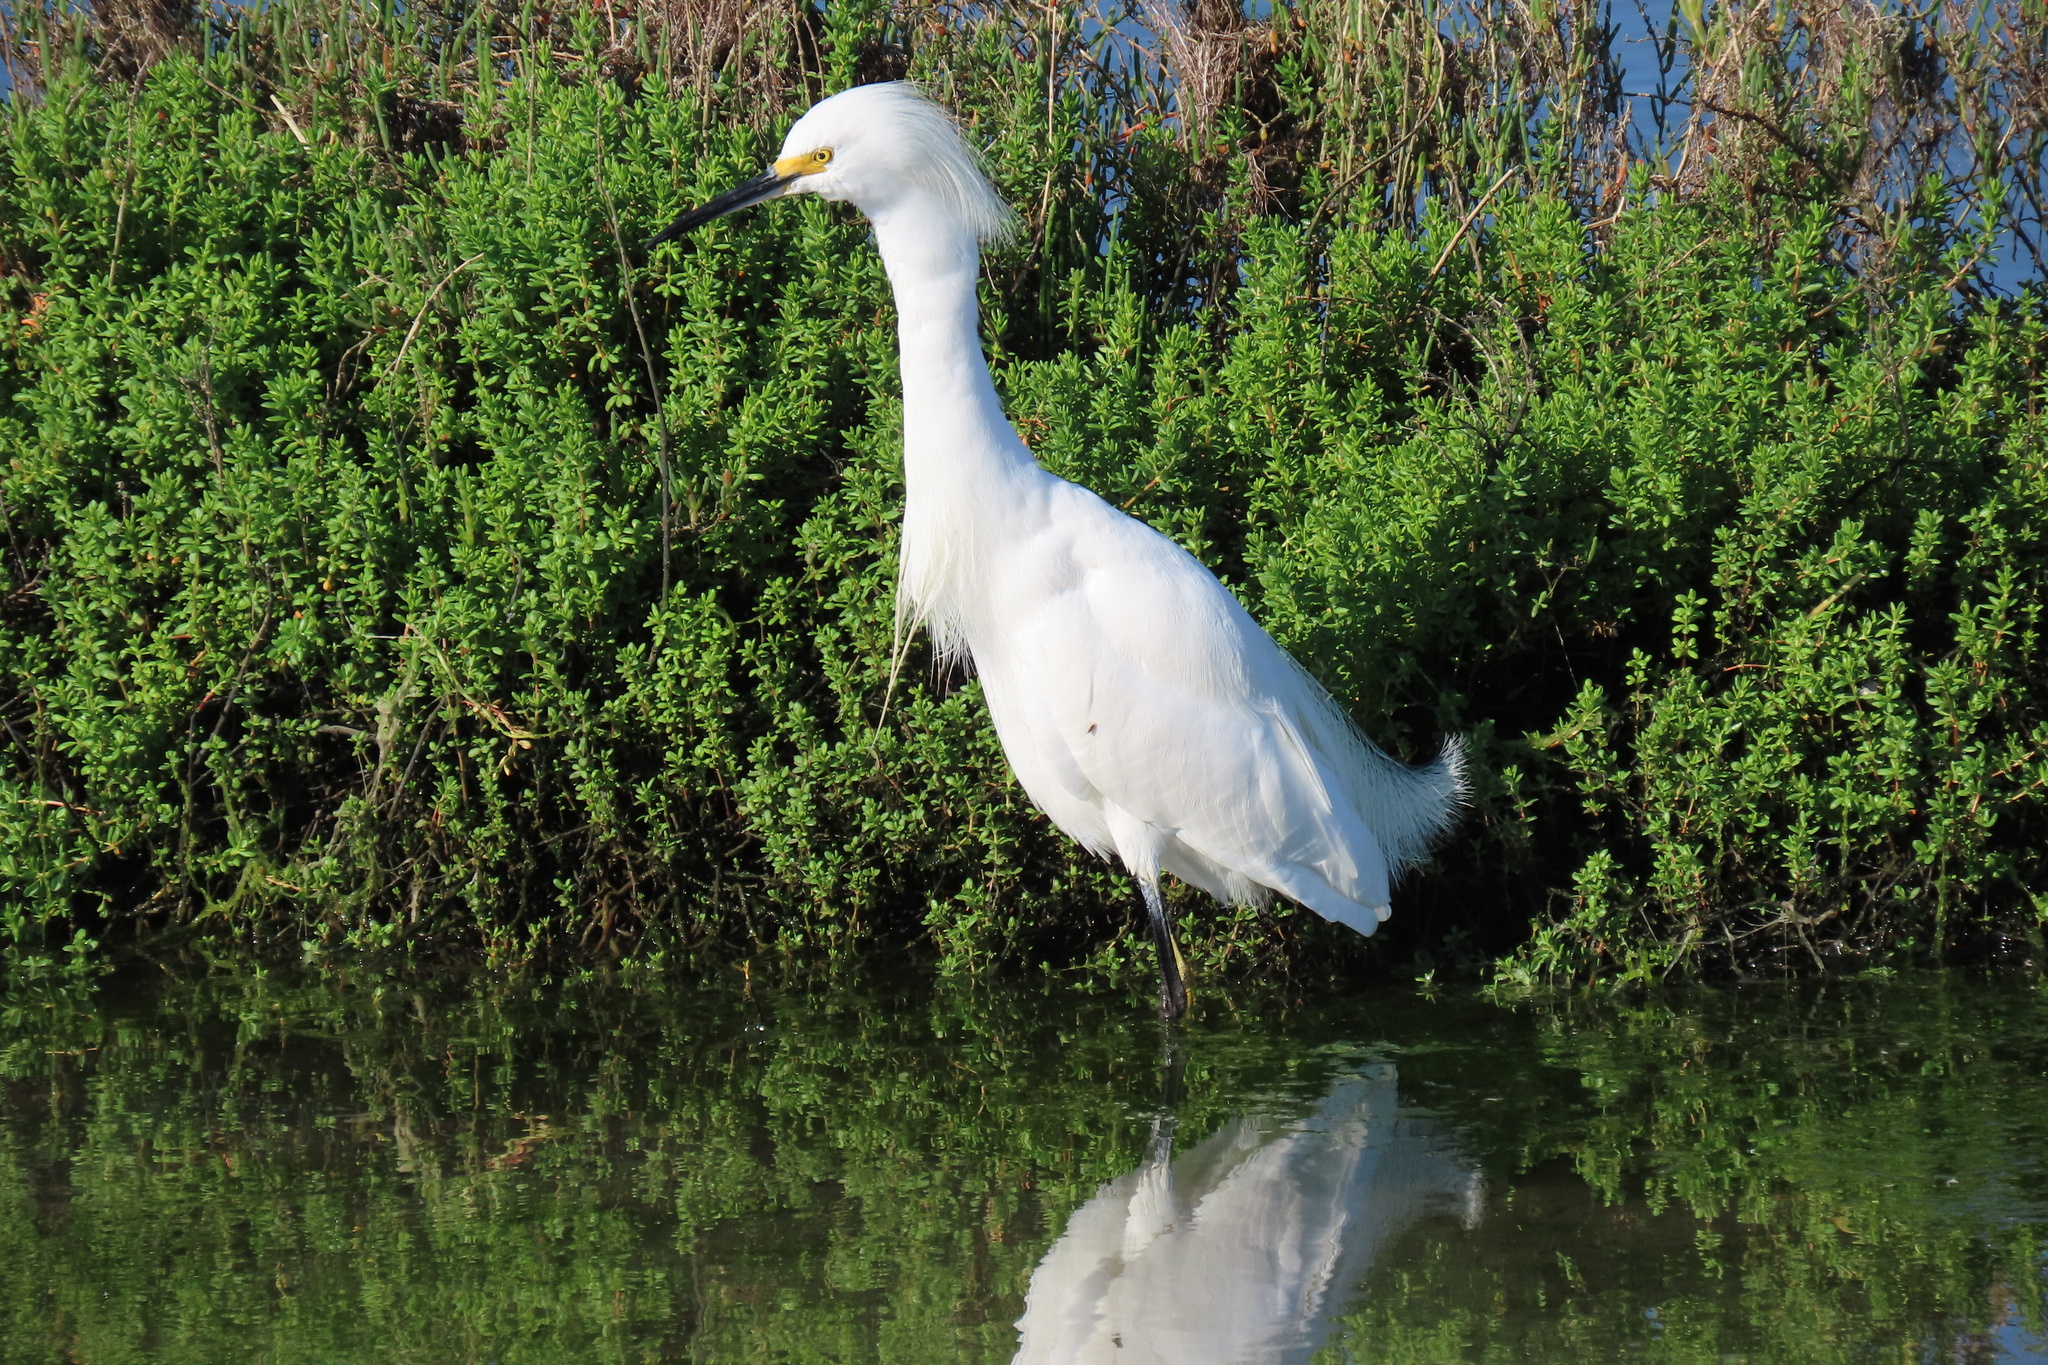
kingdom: Animalia
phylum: Chordata
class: Aves
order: Pelecaniformes
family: Ardeidae
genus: Egretta
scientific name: Egretta thula
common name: Snowy egret
